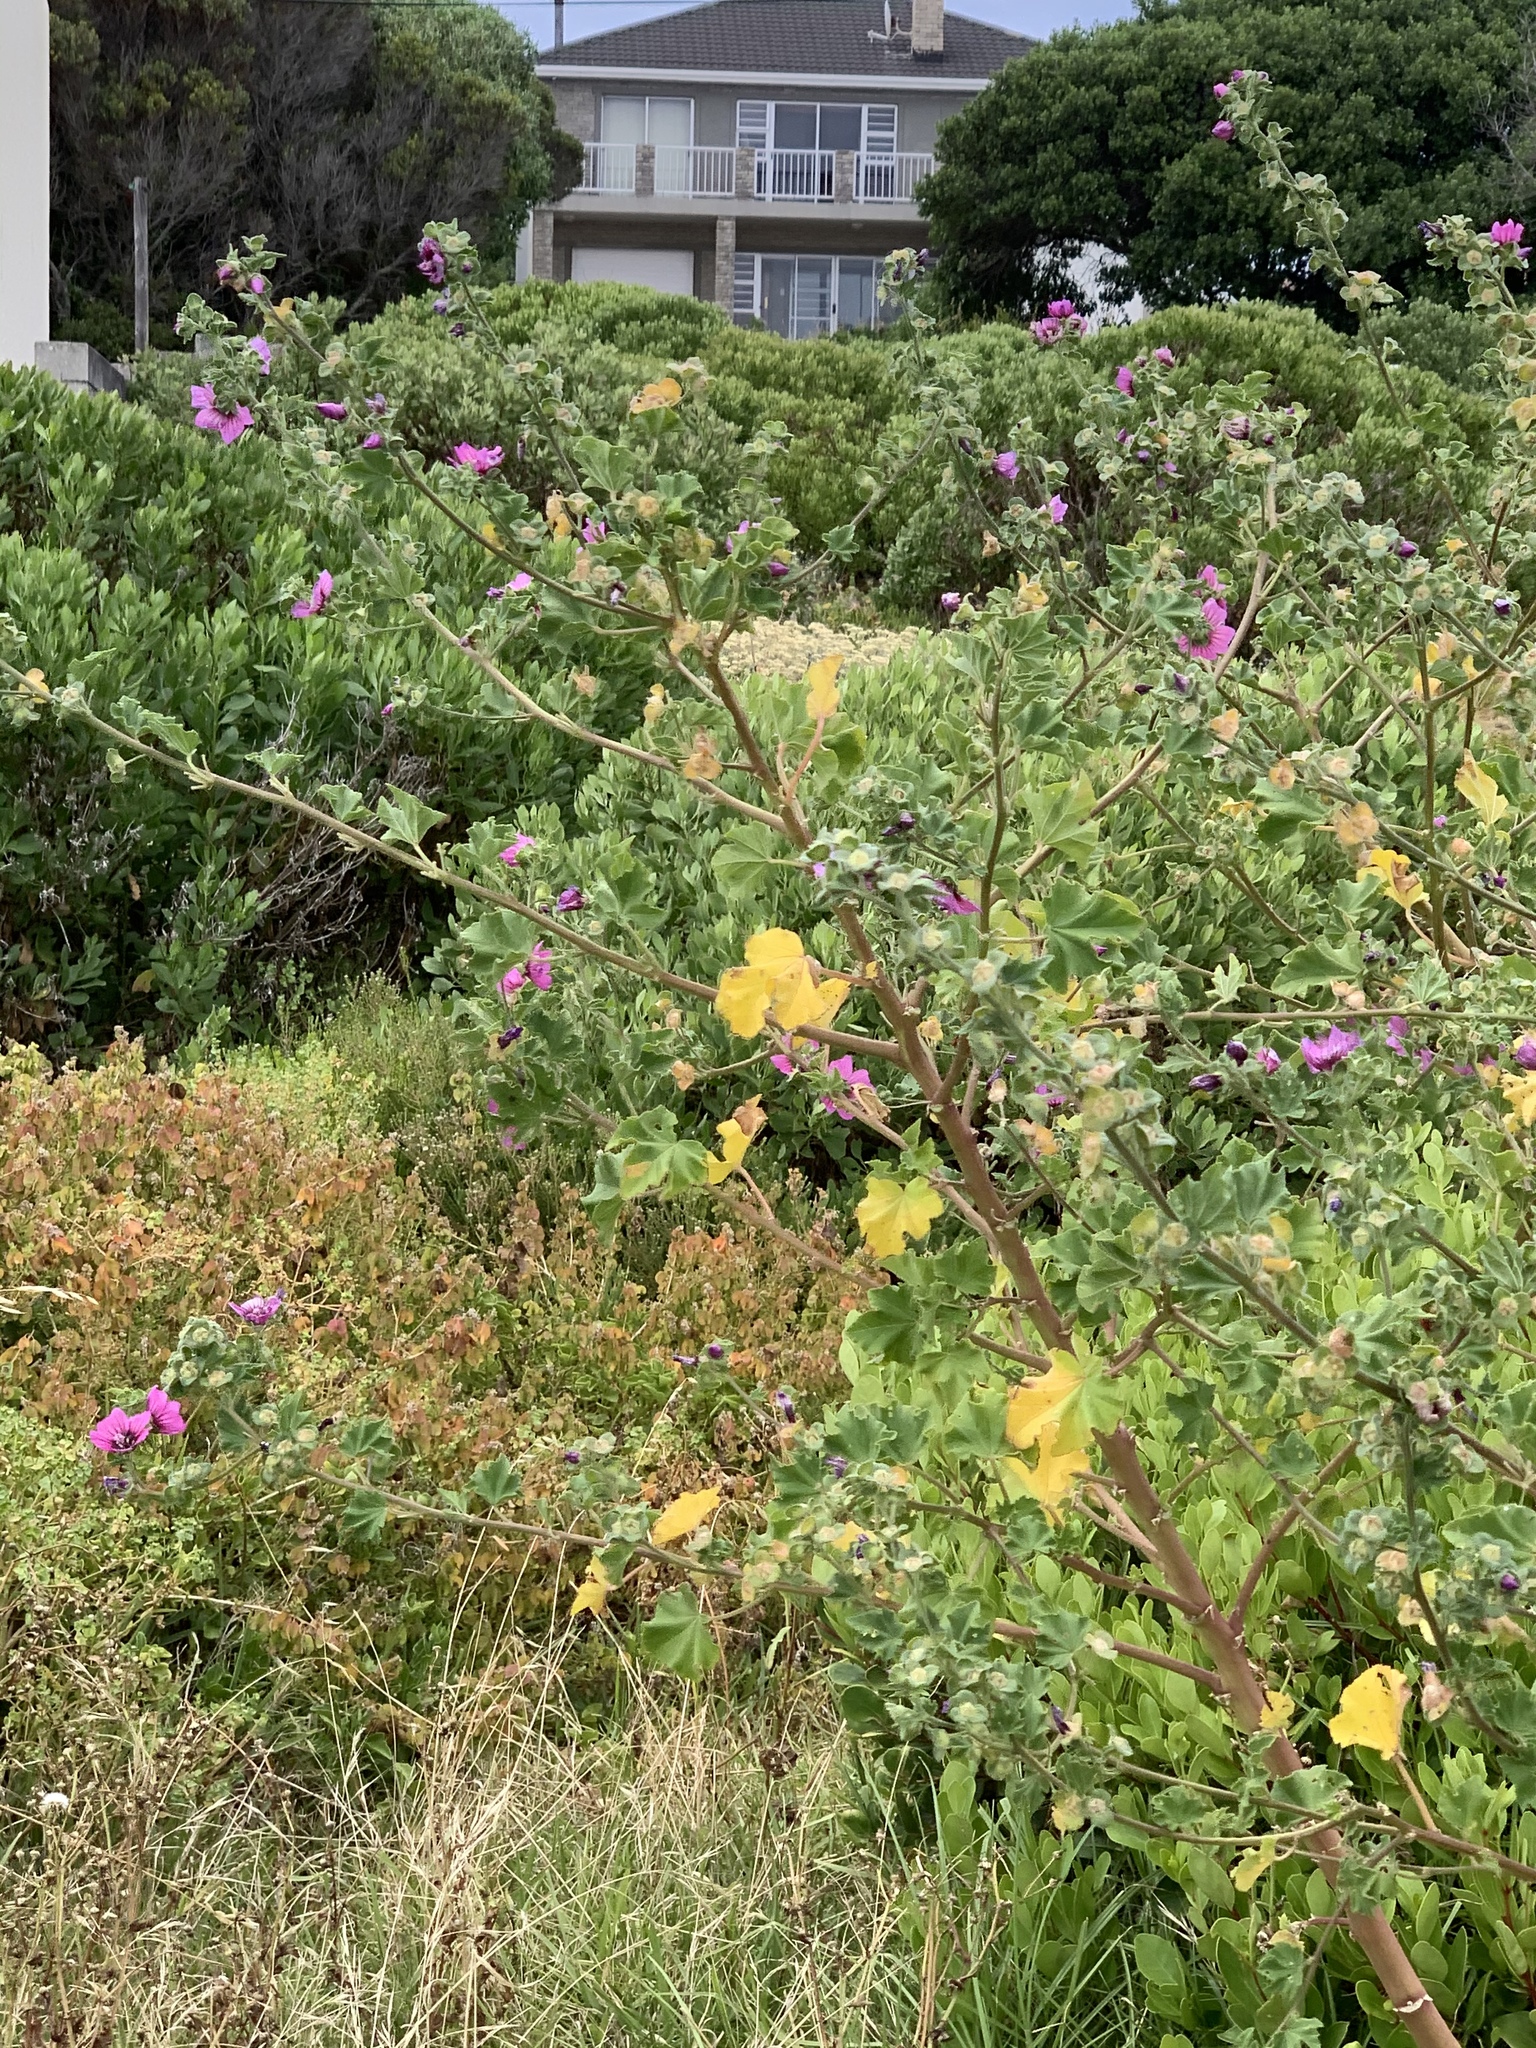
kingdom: Plantae
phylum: Tracheophyta
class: Magnoliopsida
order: Malvales
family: Malvaceae
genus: Malva
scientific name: Malva arborea
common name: Tree mallow
